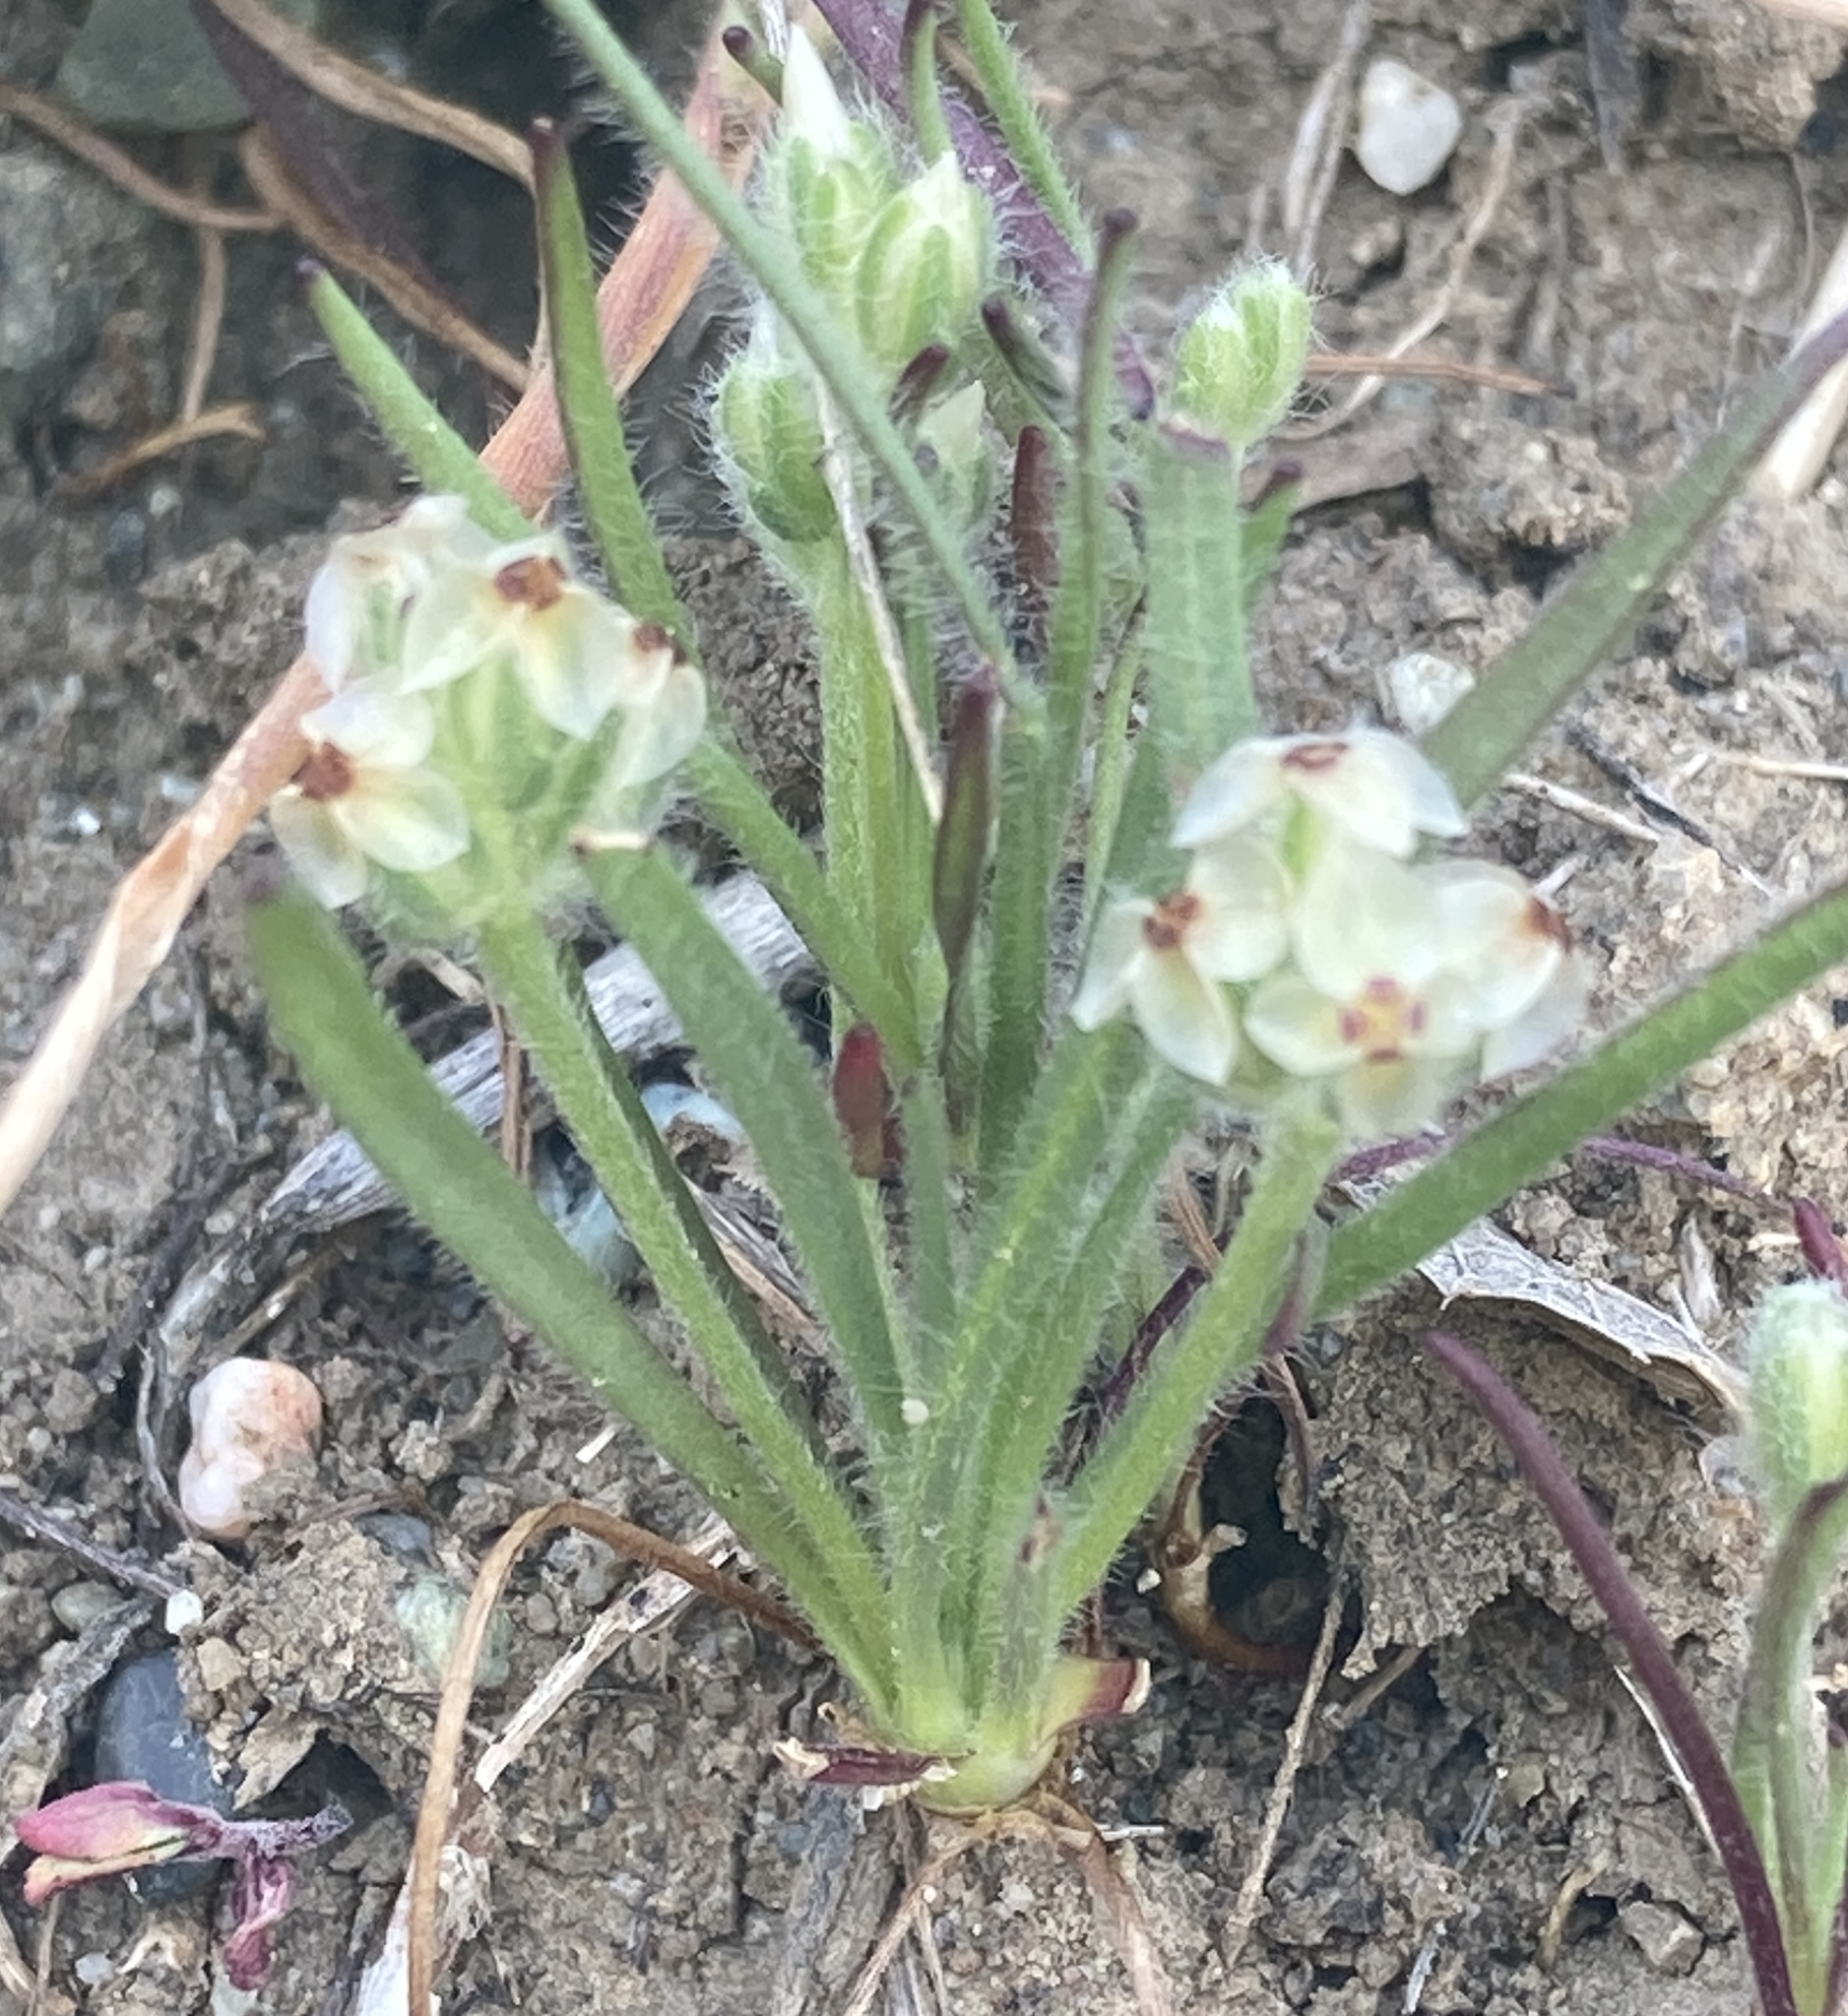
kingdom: Plantae
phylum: Tracheophyta
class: Magnoliopsida
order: Lamiales
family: Plantaginaceae
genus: Plantago
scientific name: Plantago erecta
